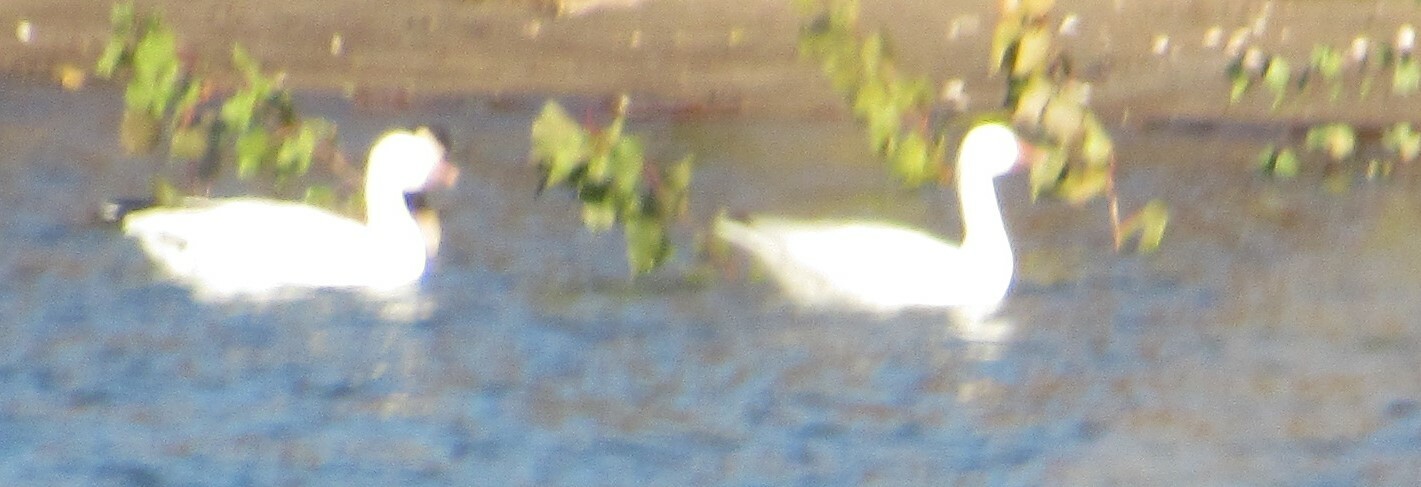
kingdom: Animalia
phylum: Chordata
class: Aves
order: Anseriformes
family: Anatidae
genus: Anser
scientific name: Anser caerulescens
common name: Snow goose
